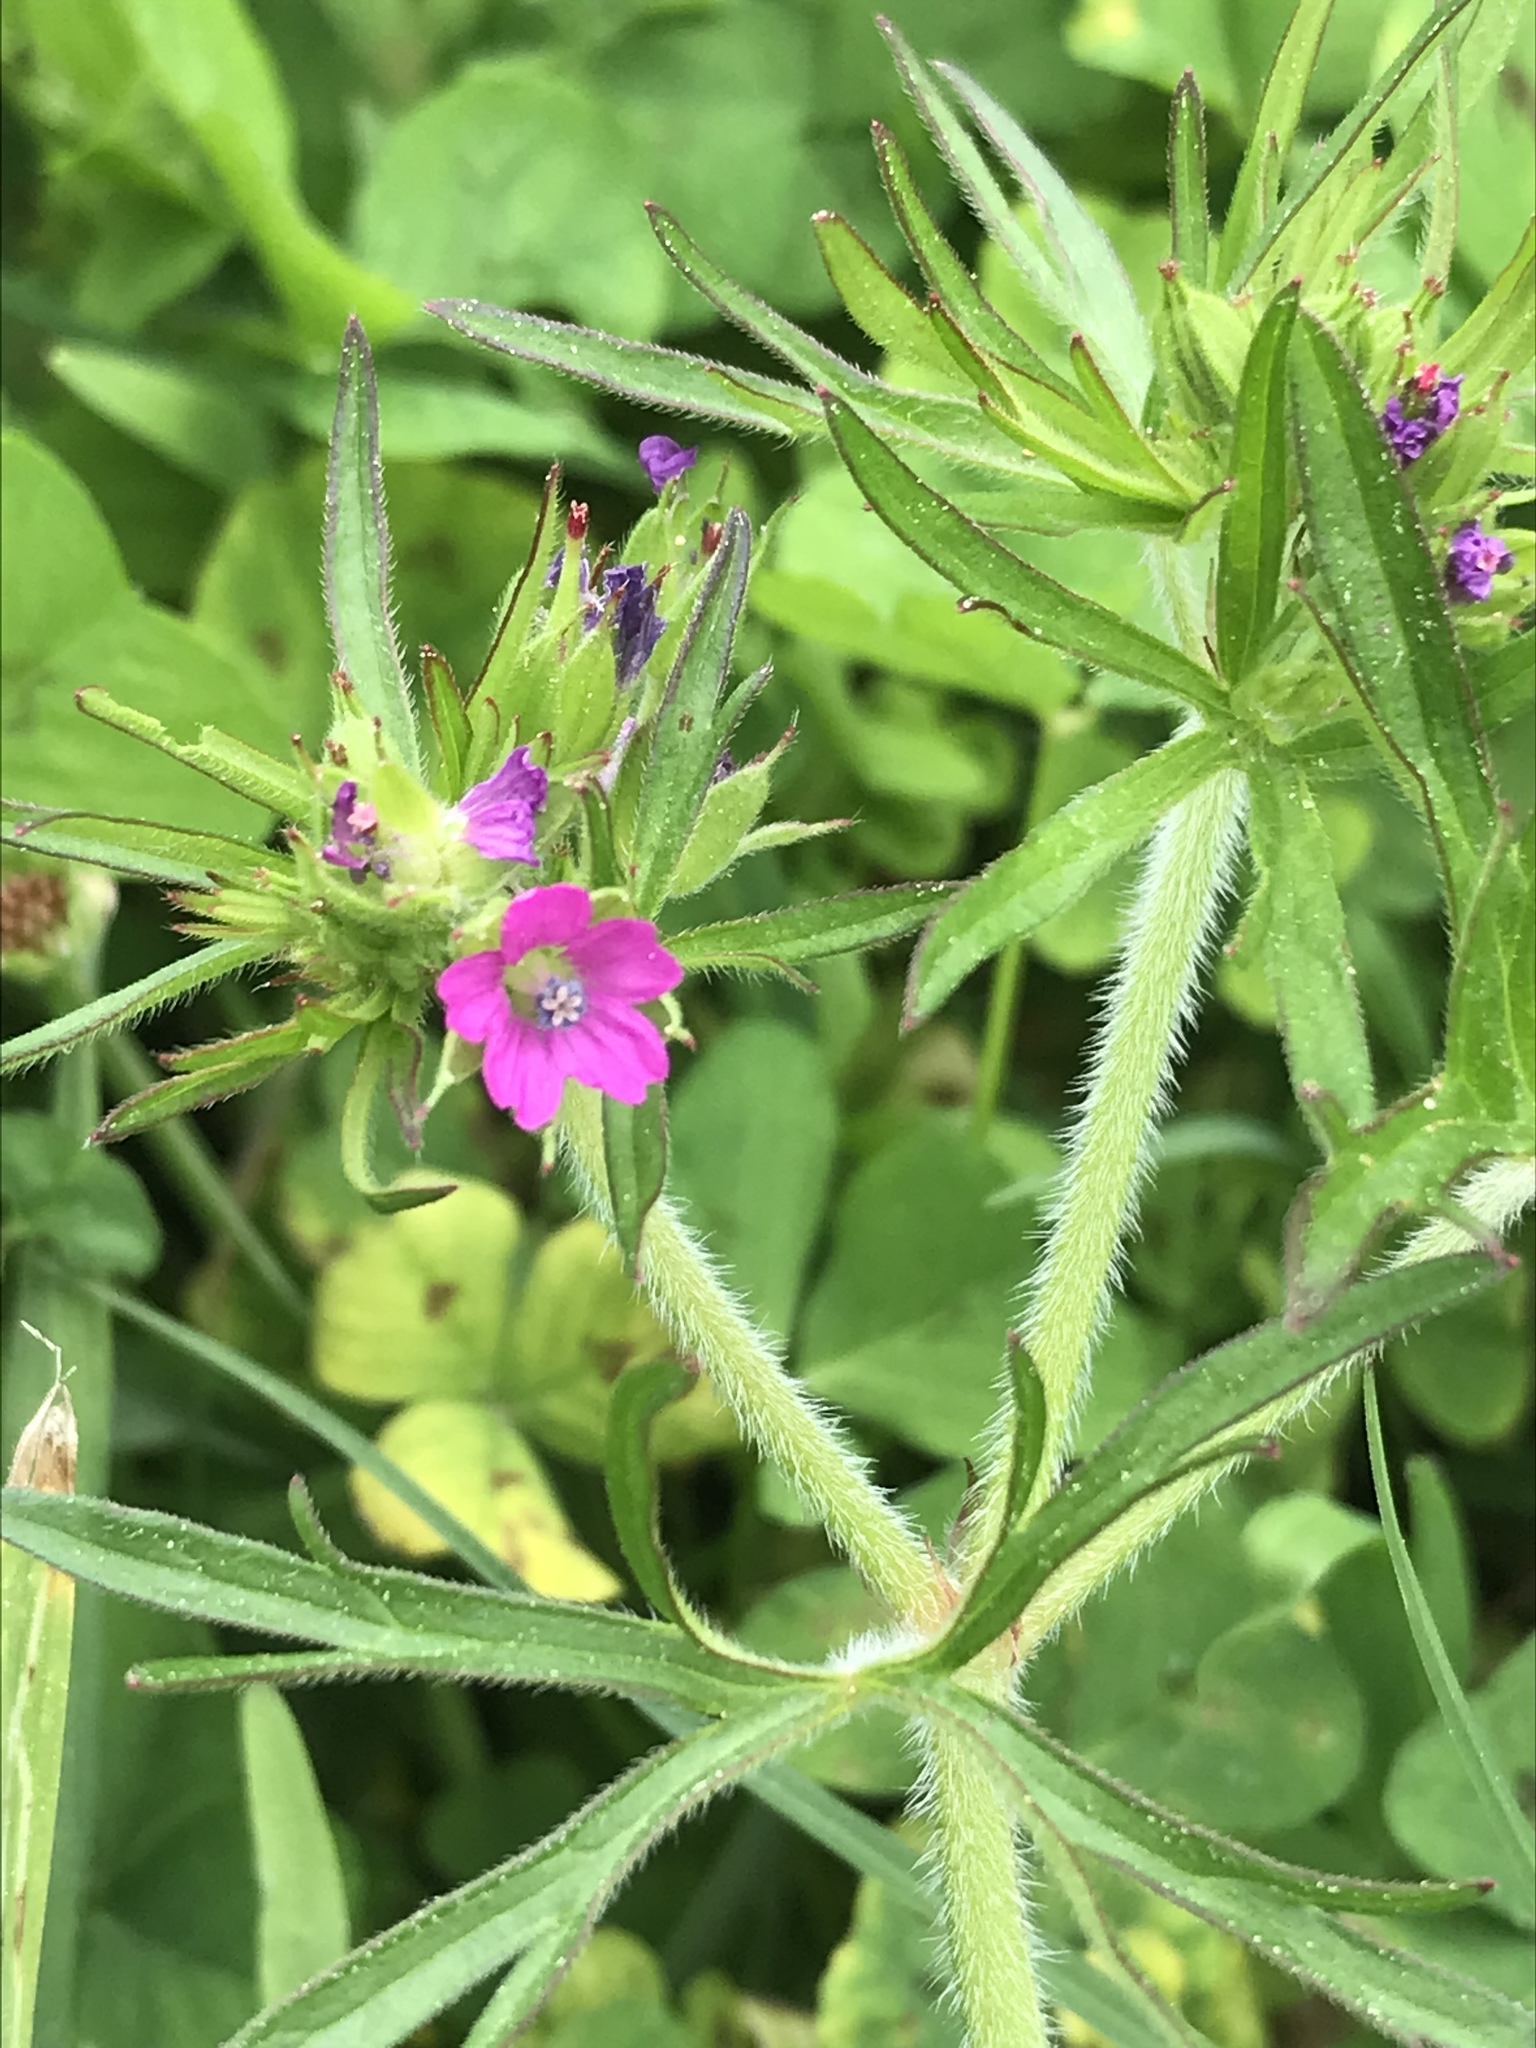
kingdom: Plantae
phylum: Tracheophyta
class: Magnoliopsida
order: Geraniales
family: Geraniaceae
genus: Geranium
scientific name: Geranium dissectum
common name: Cut-leaved crane's-bill
